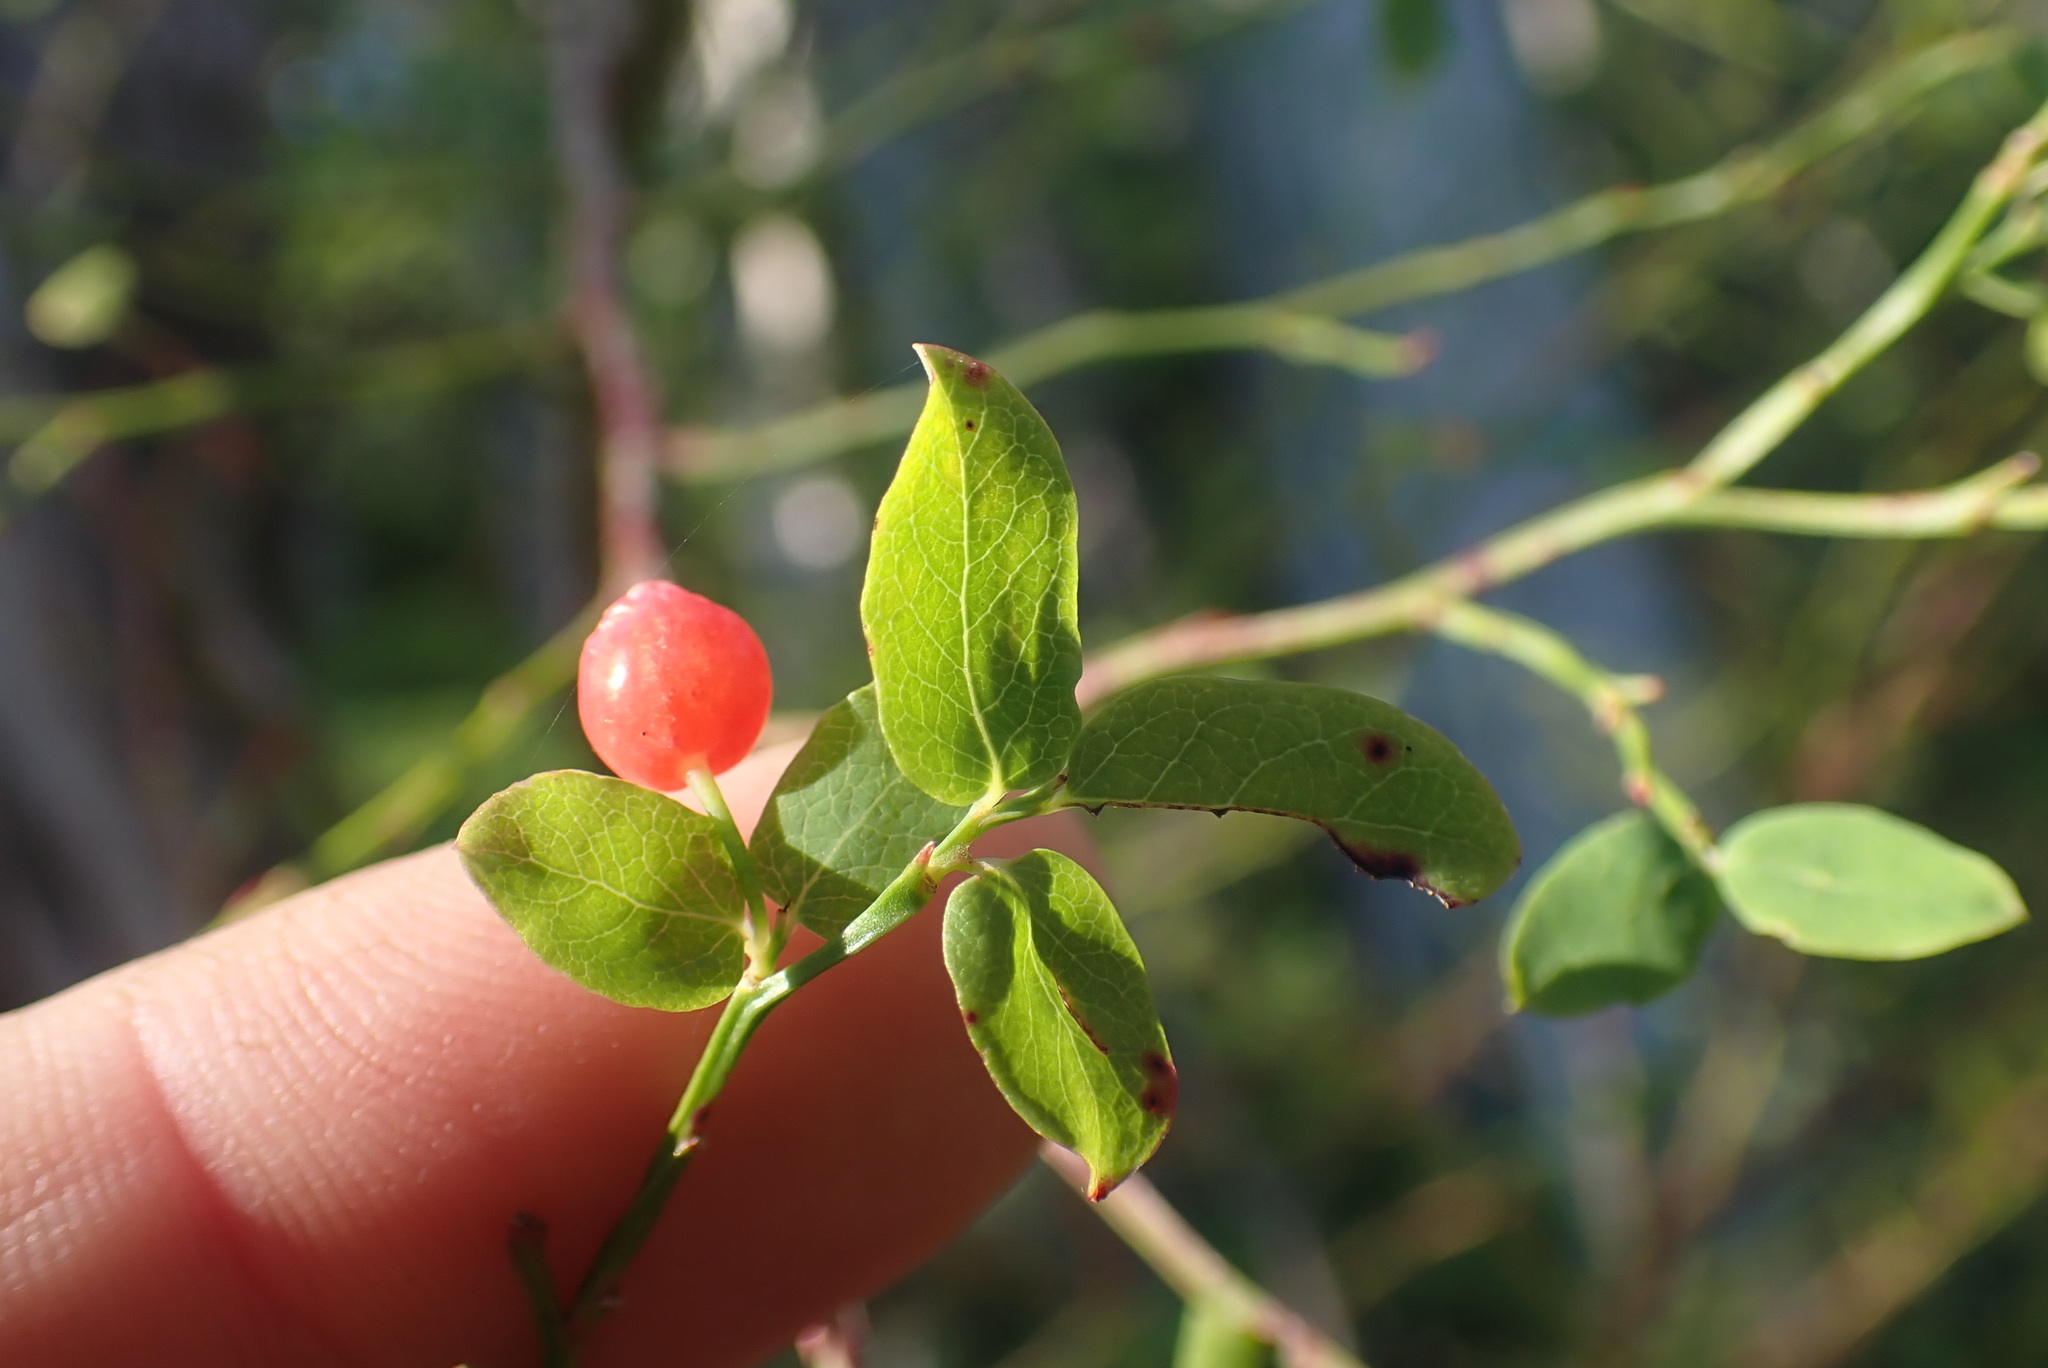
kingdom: Plantae
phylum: Tracheophyta
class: Magnoliopsida
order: Ericales
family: Ericaceae
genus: Vaccinium
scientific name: Vaccinium parvifolium
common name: Red-huckleberry
